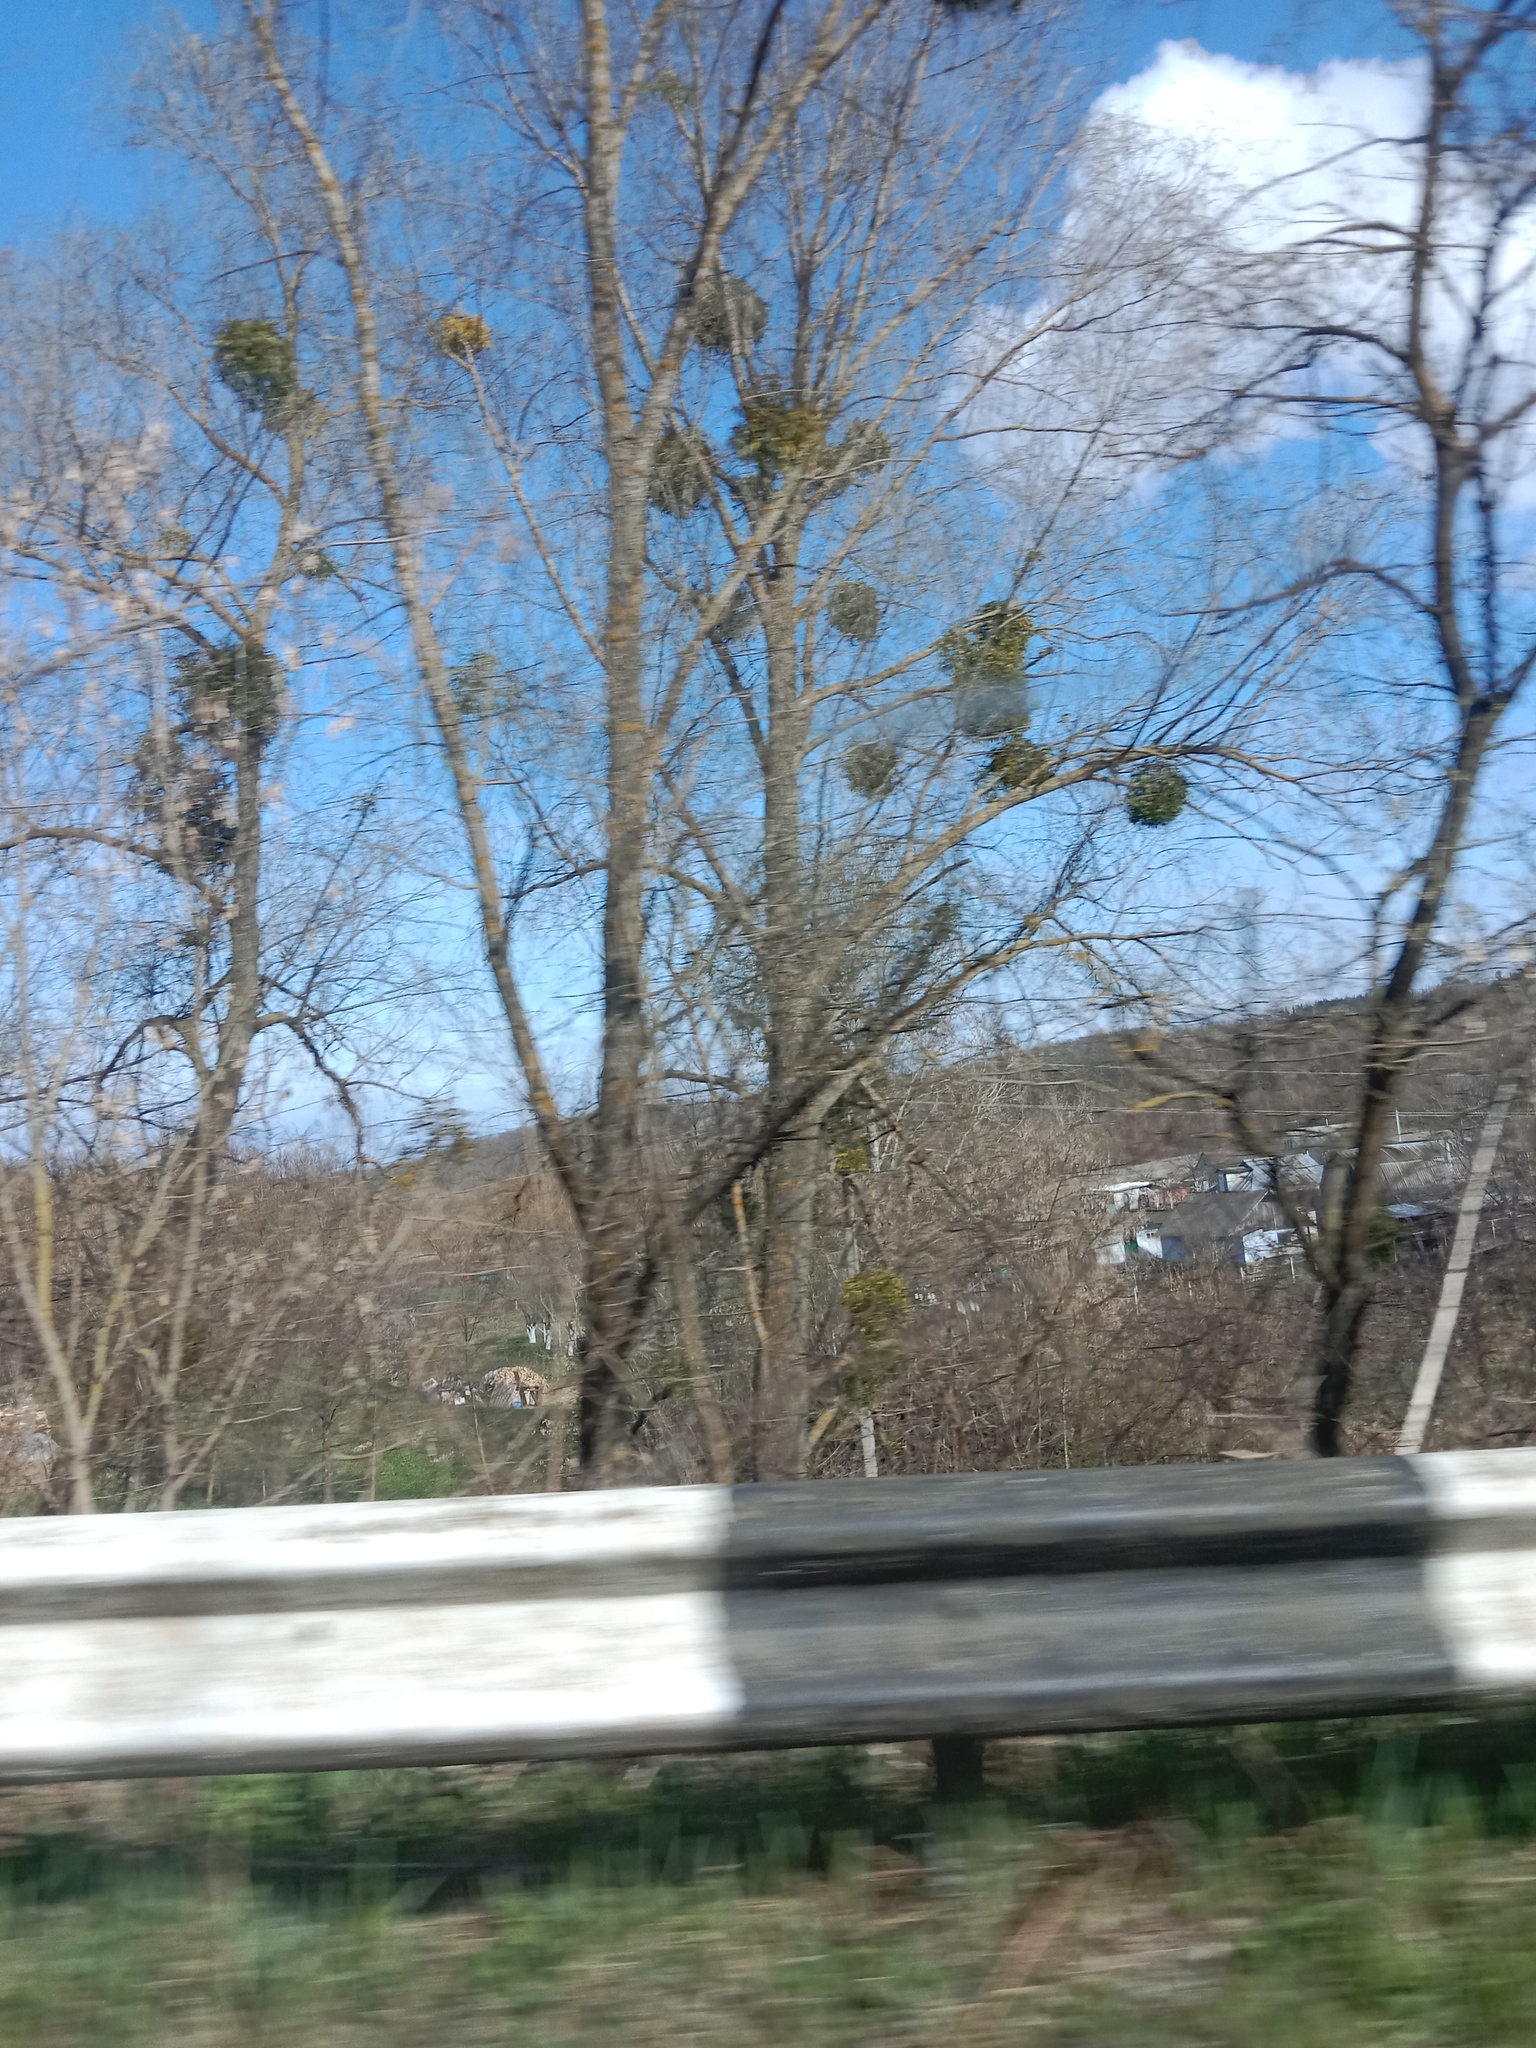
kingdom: Plantae
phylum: Tracheophyta
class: Magnoliopsida
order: Santalales
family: Viscaceae
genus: Viscum
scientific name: Viscum album
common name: Mistletoe
